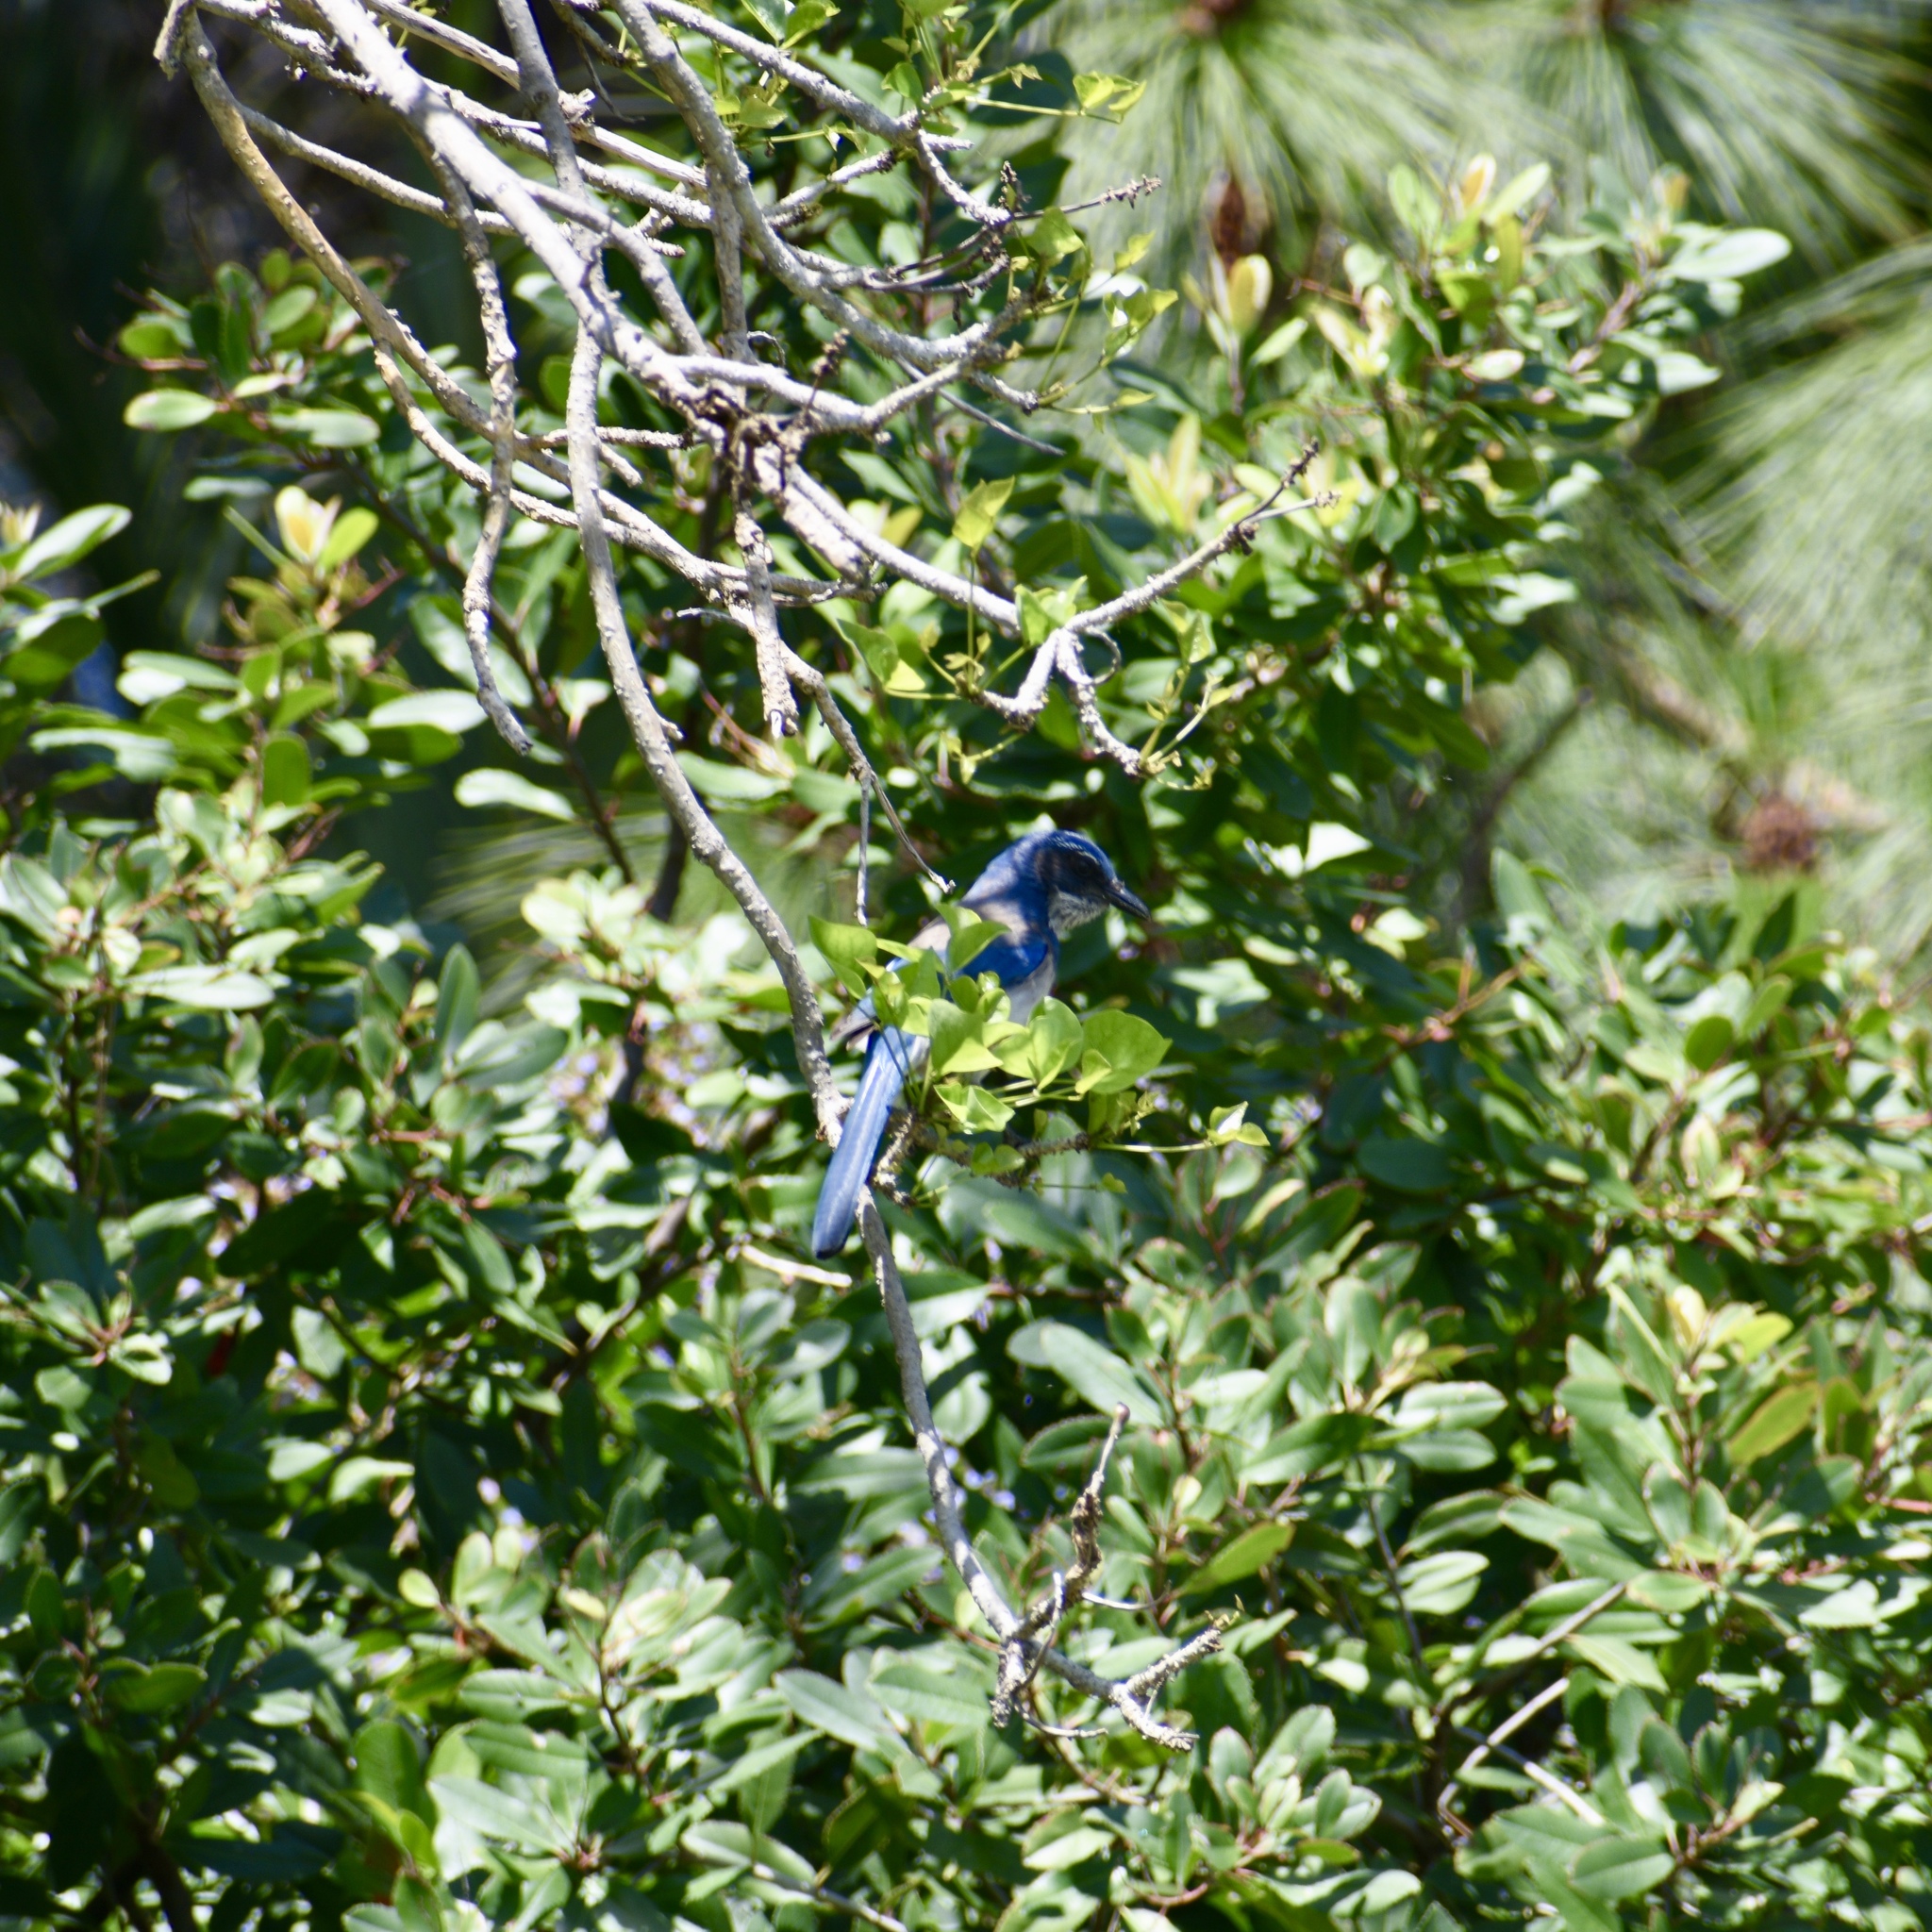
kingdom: Animalia
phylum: Chordata
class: Aves
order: Passeriformes
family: Corvidae
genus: Aphelocoma
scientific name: Aphelocoma californica
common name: California scrub-jay
